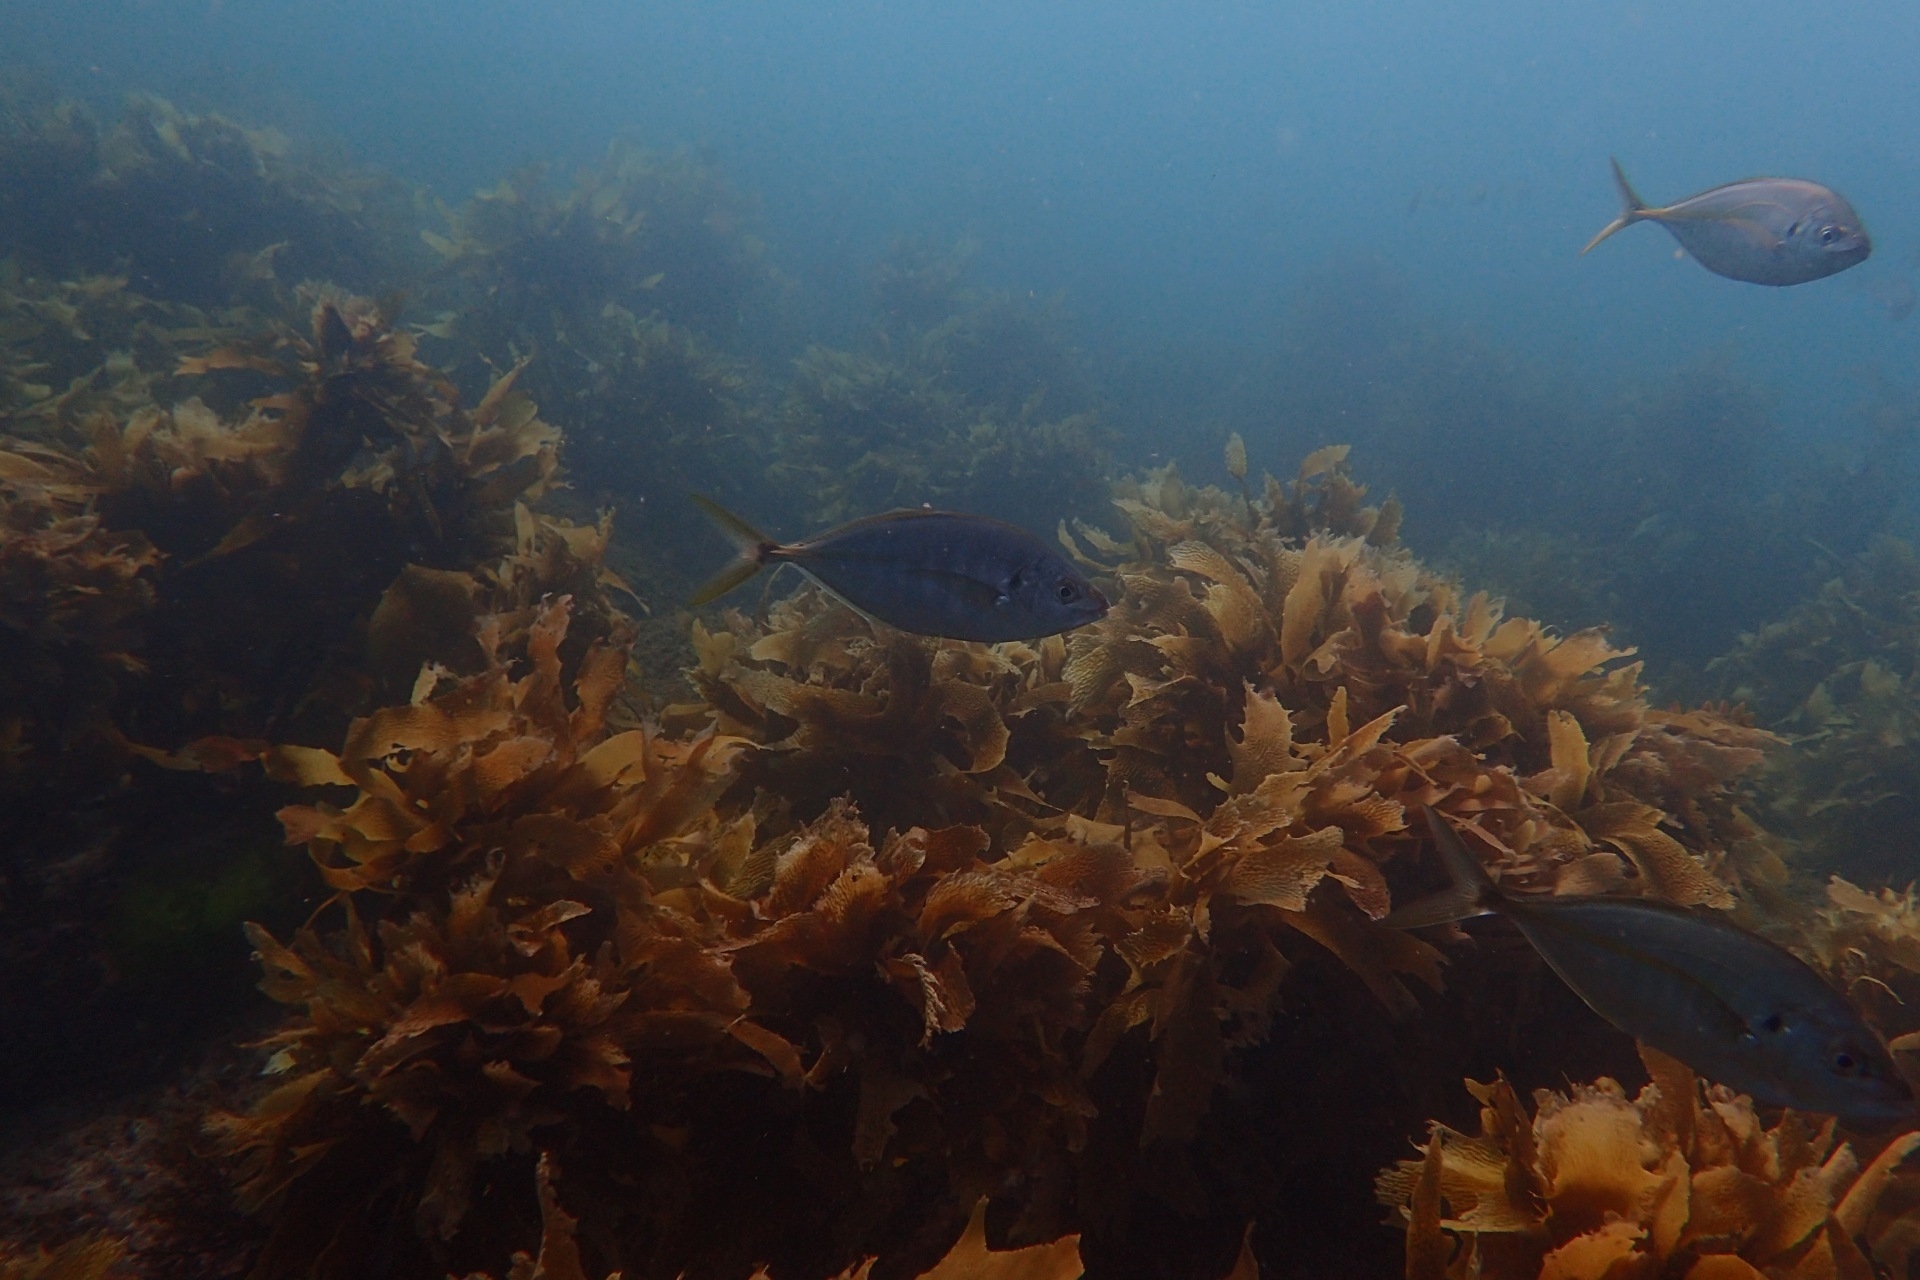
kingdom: Animalia
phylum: Chordata
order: Perciformes
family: Carangidae
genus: Pseudocaranx
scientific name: Pseudocaranx dentex
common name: White trevally
